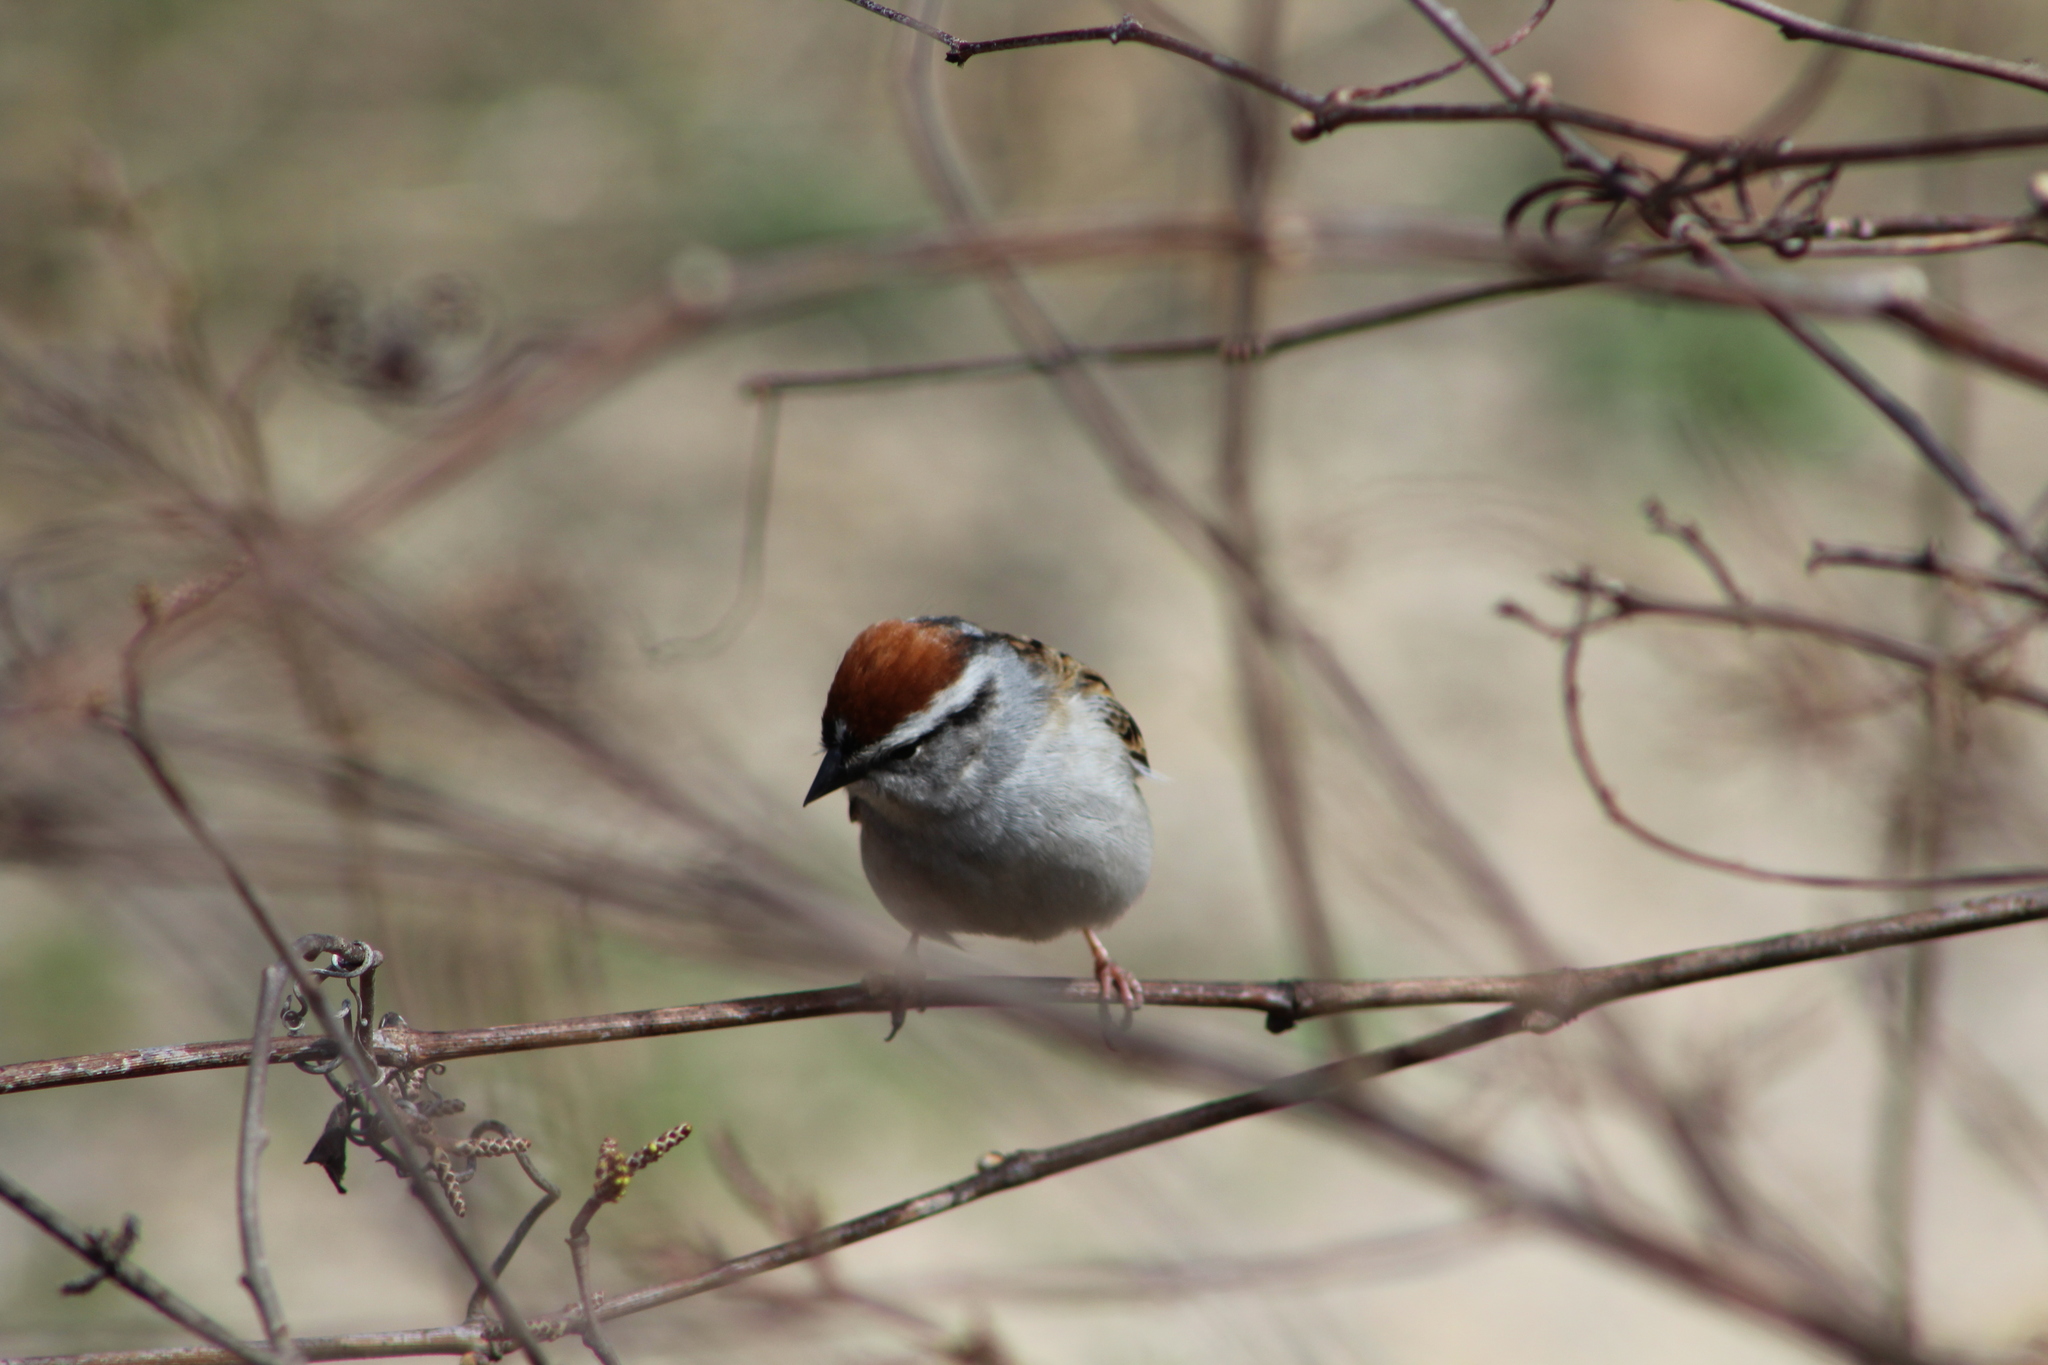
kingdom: Animalia
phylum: Chordata
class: Aves
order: Passeriformes
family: Passerellidae
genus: Spizella
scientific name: Spizella passerina
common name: Chipping sparrow
